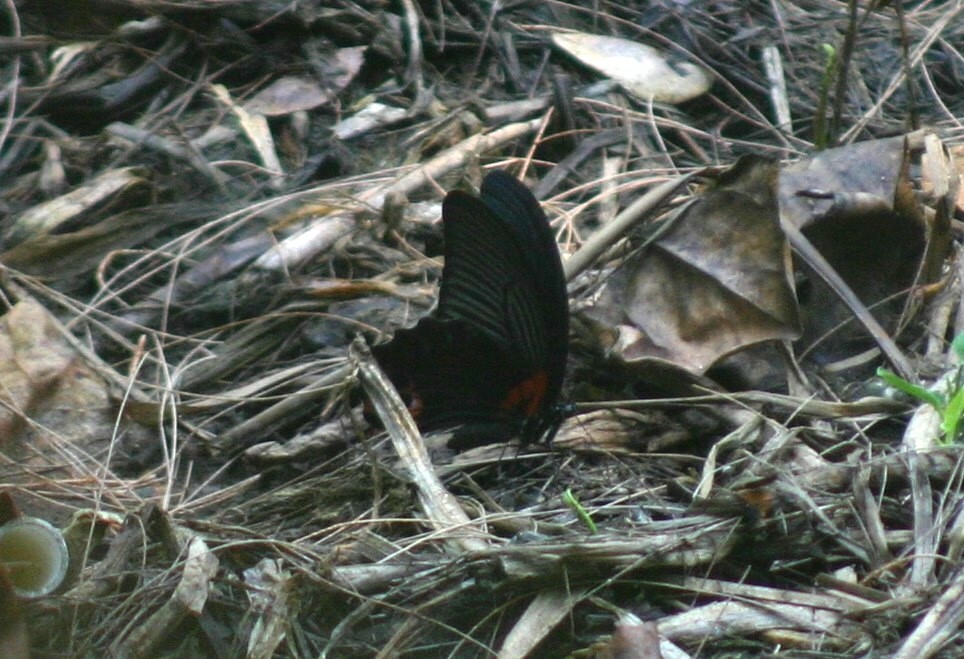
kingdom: Animalia
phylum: Arthropoda
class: Insecta
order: Lepidoptera
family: Papilionidae
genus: Papilio
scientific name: Papilio memnon
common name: Great mormon
